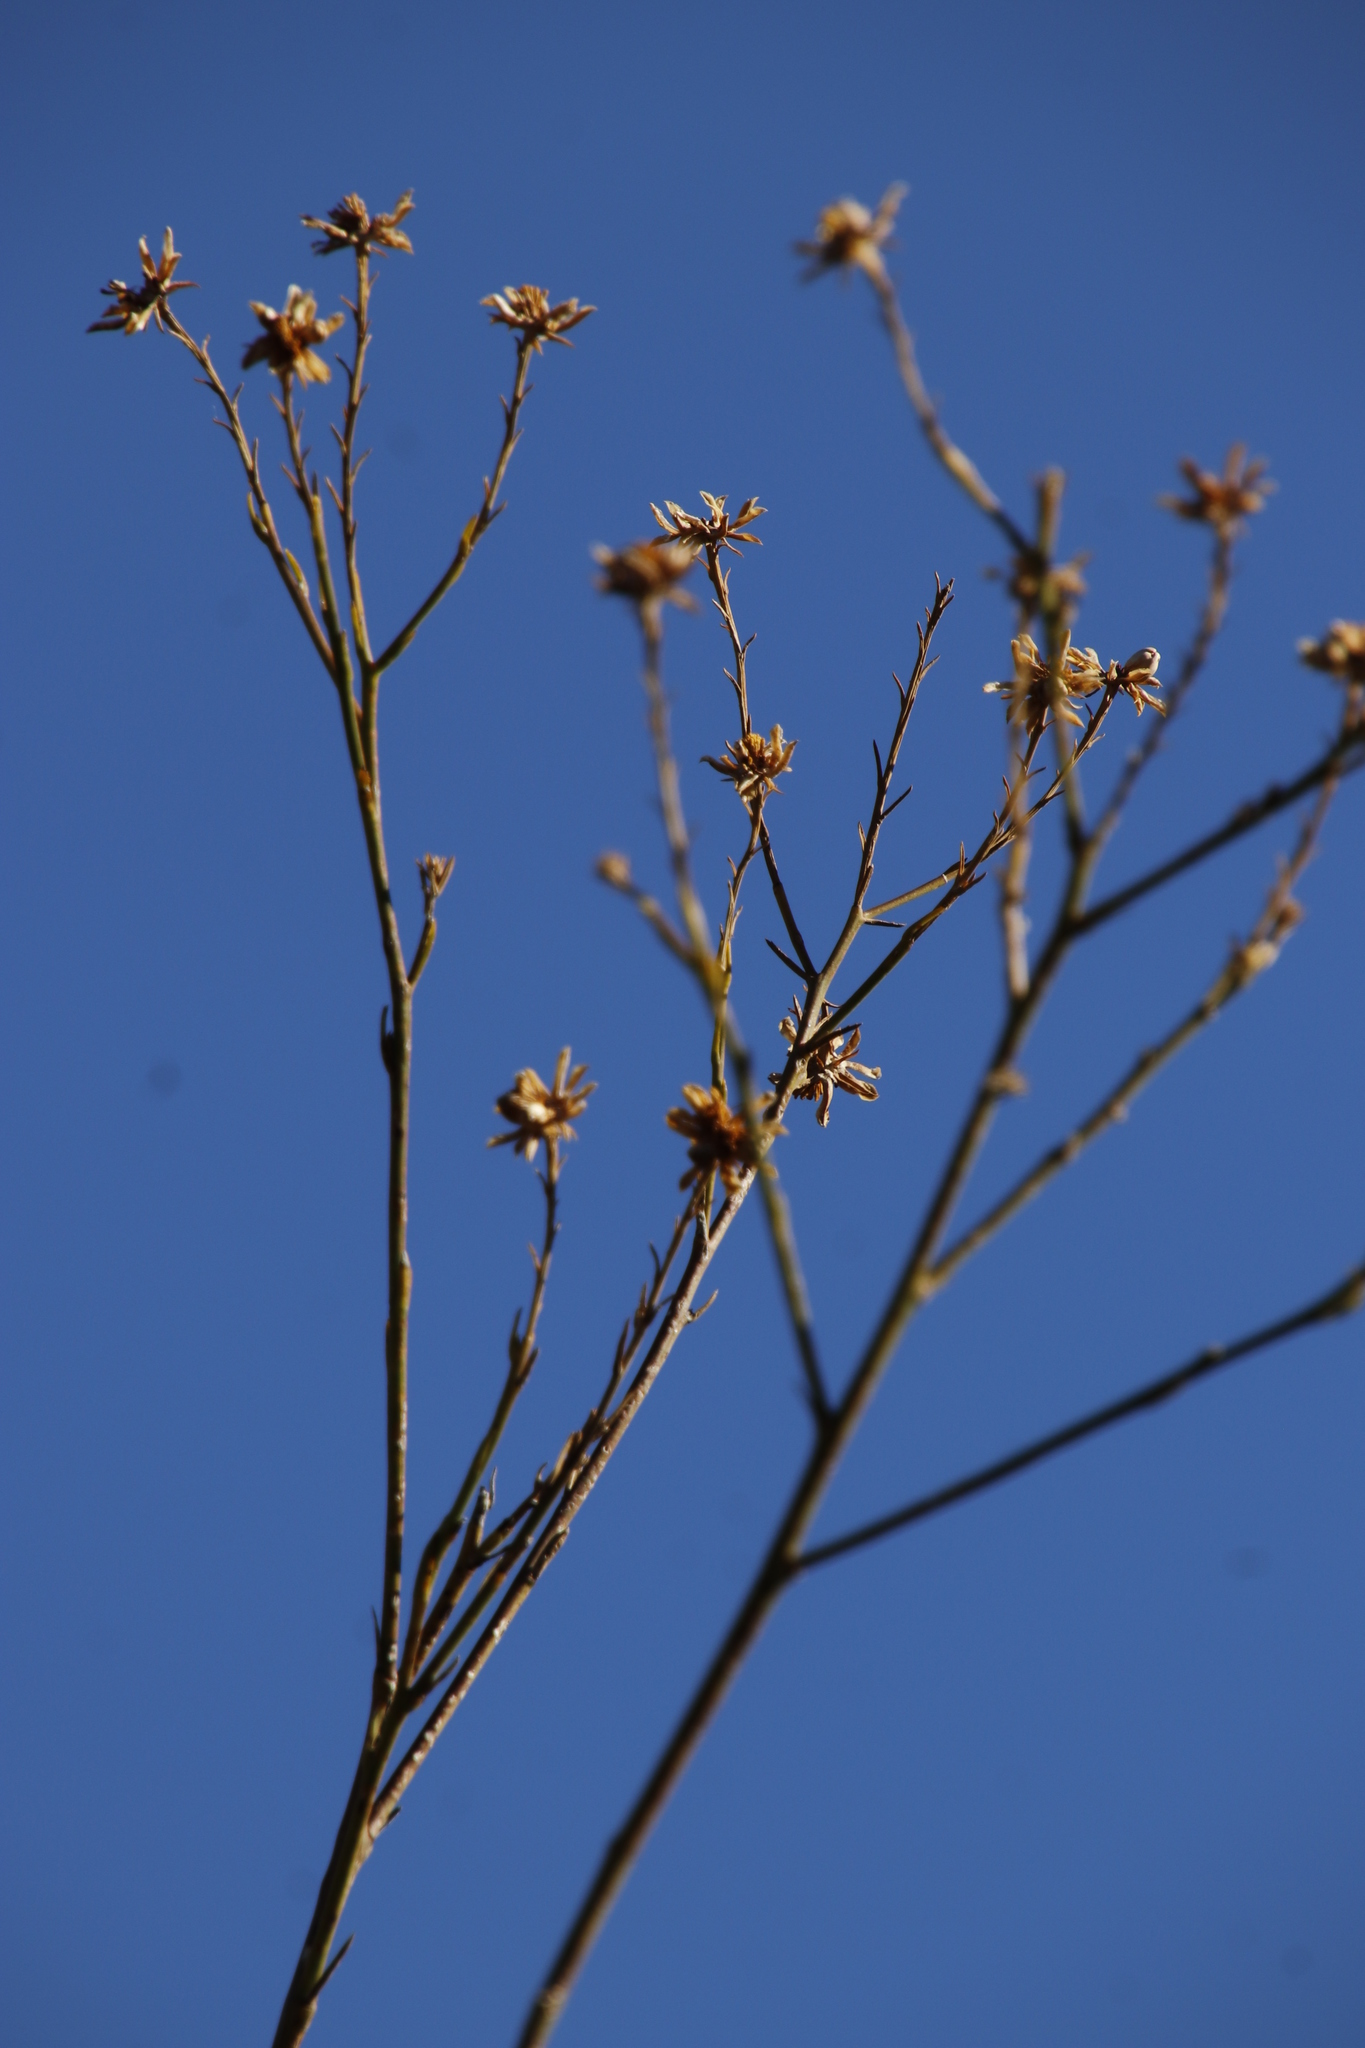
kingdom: Plantae
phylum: Tracheophyta
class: Magnoliopsida
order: Asterales
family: Asteraceae
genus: Othonna
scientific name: Othonna quinquedentata
